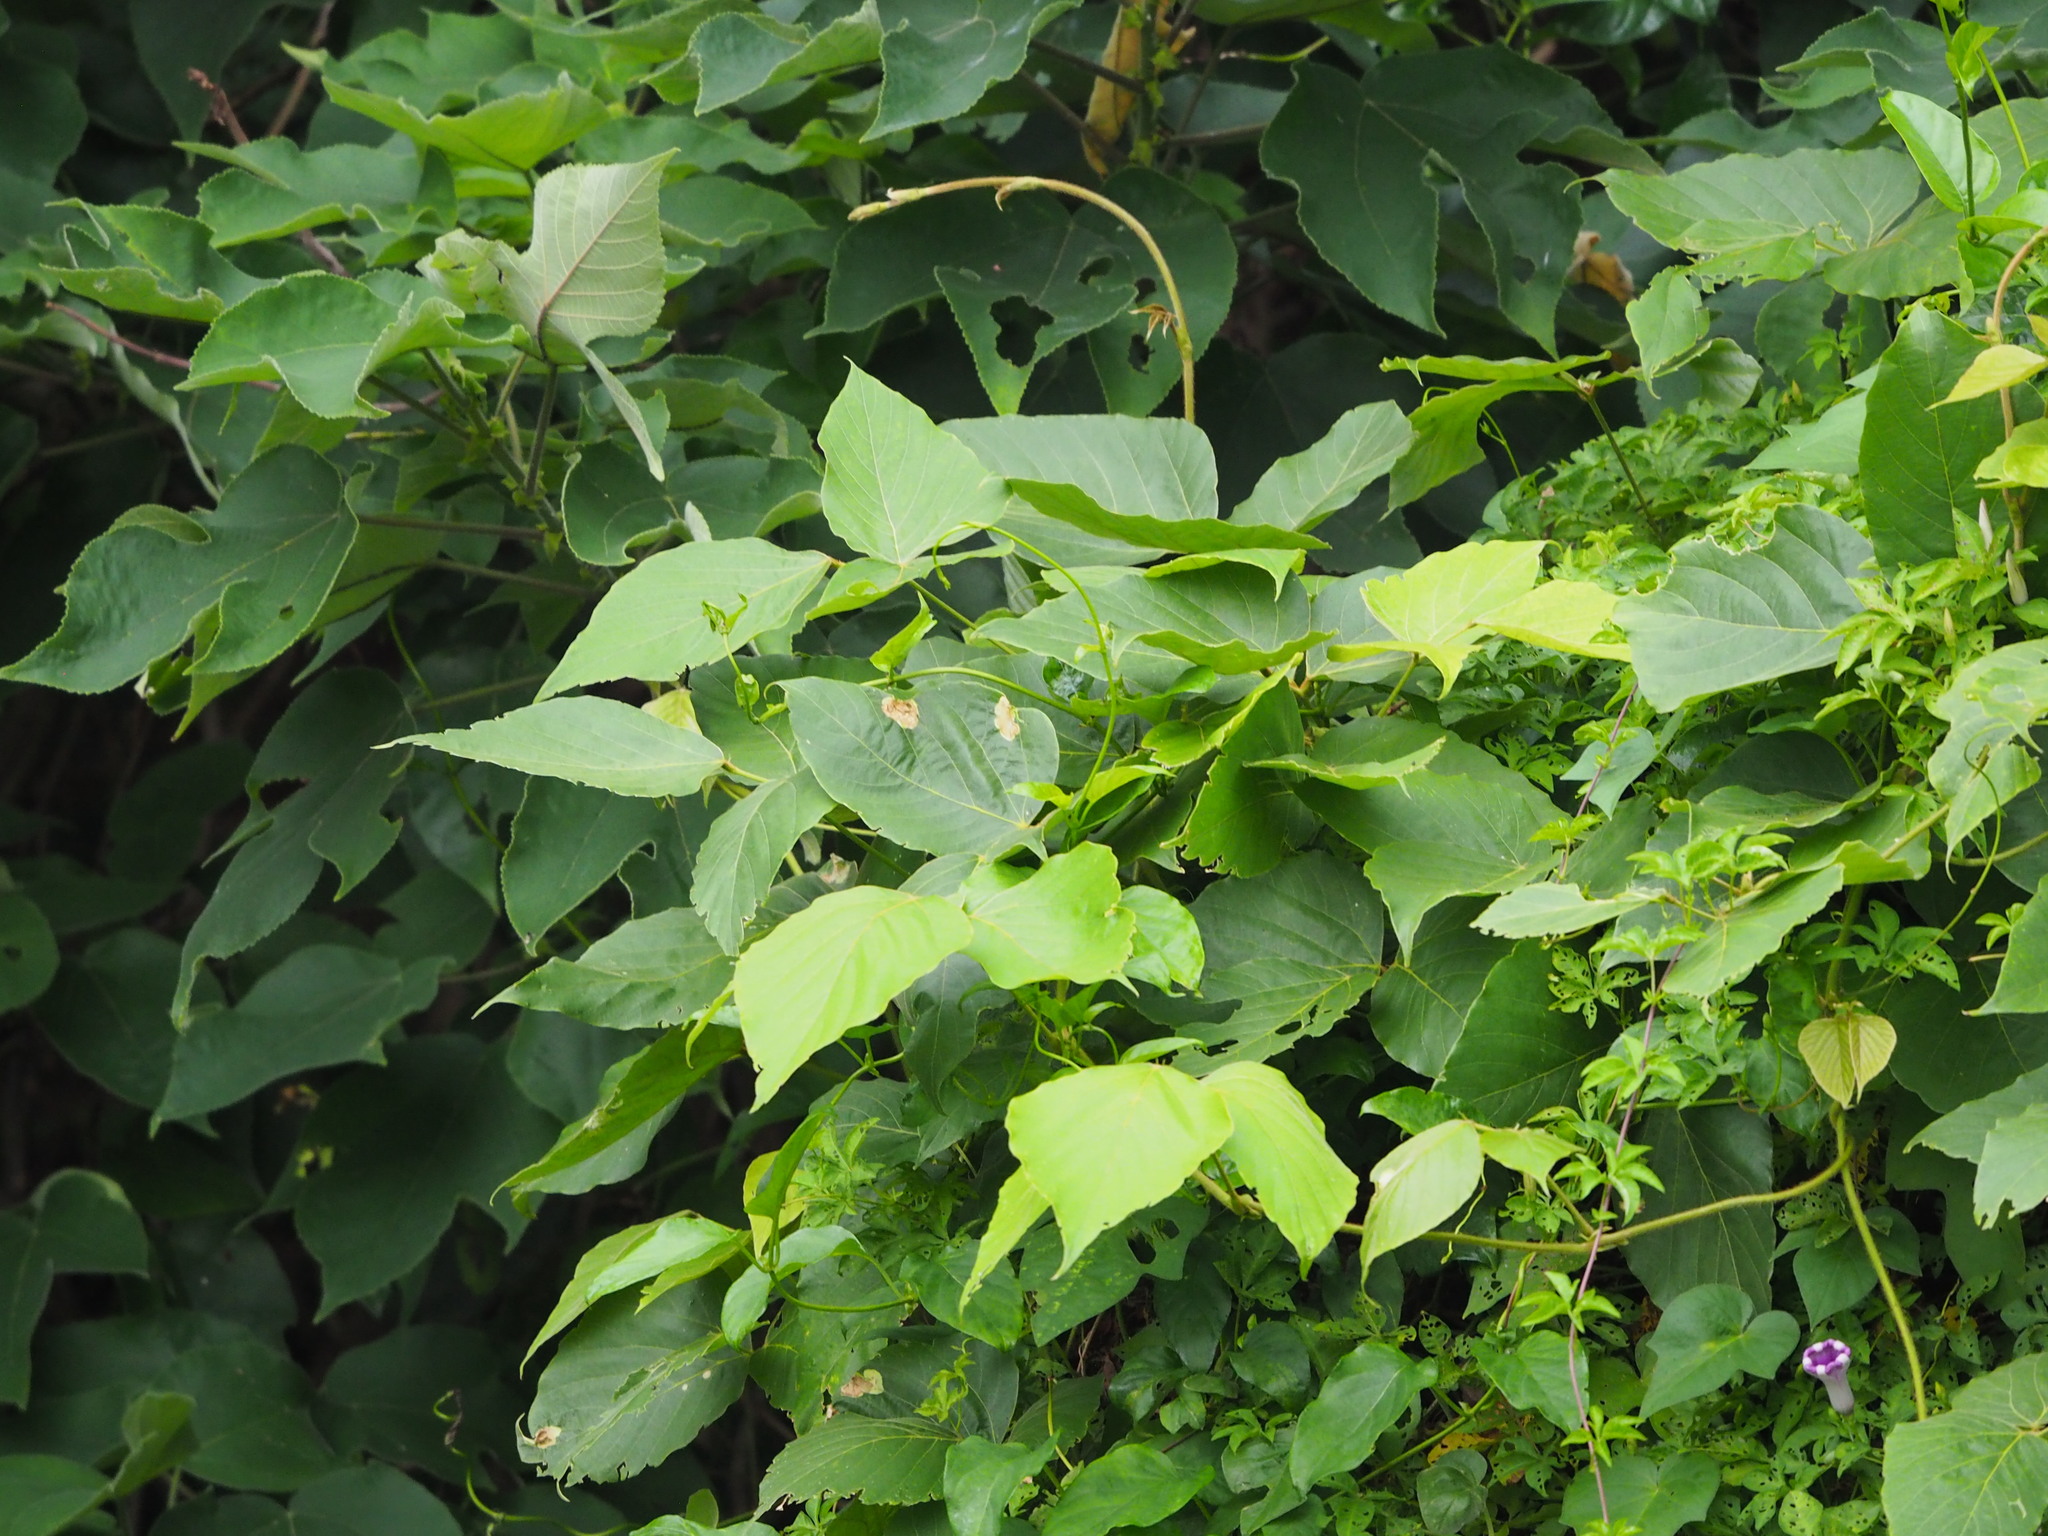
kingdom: Plantae
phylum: Tracheophyta
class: Magnoliopsida
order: Fabales
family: Fabaceae
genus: Pueraria
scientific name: Pueraria montana
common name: Kudzu
